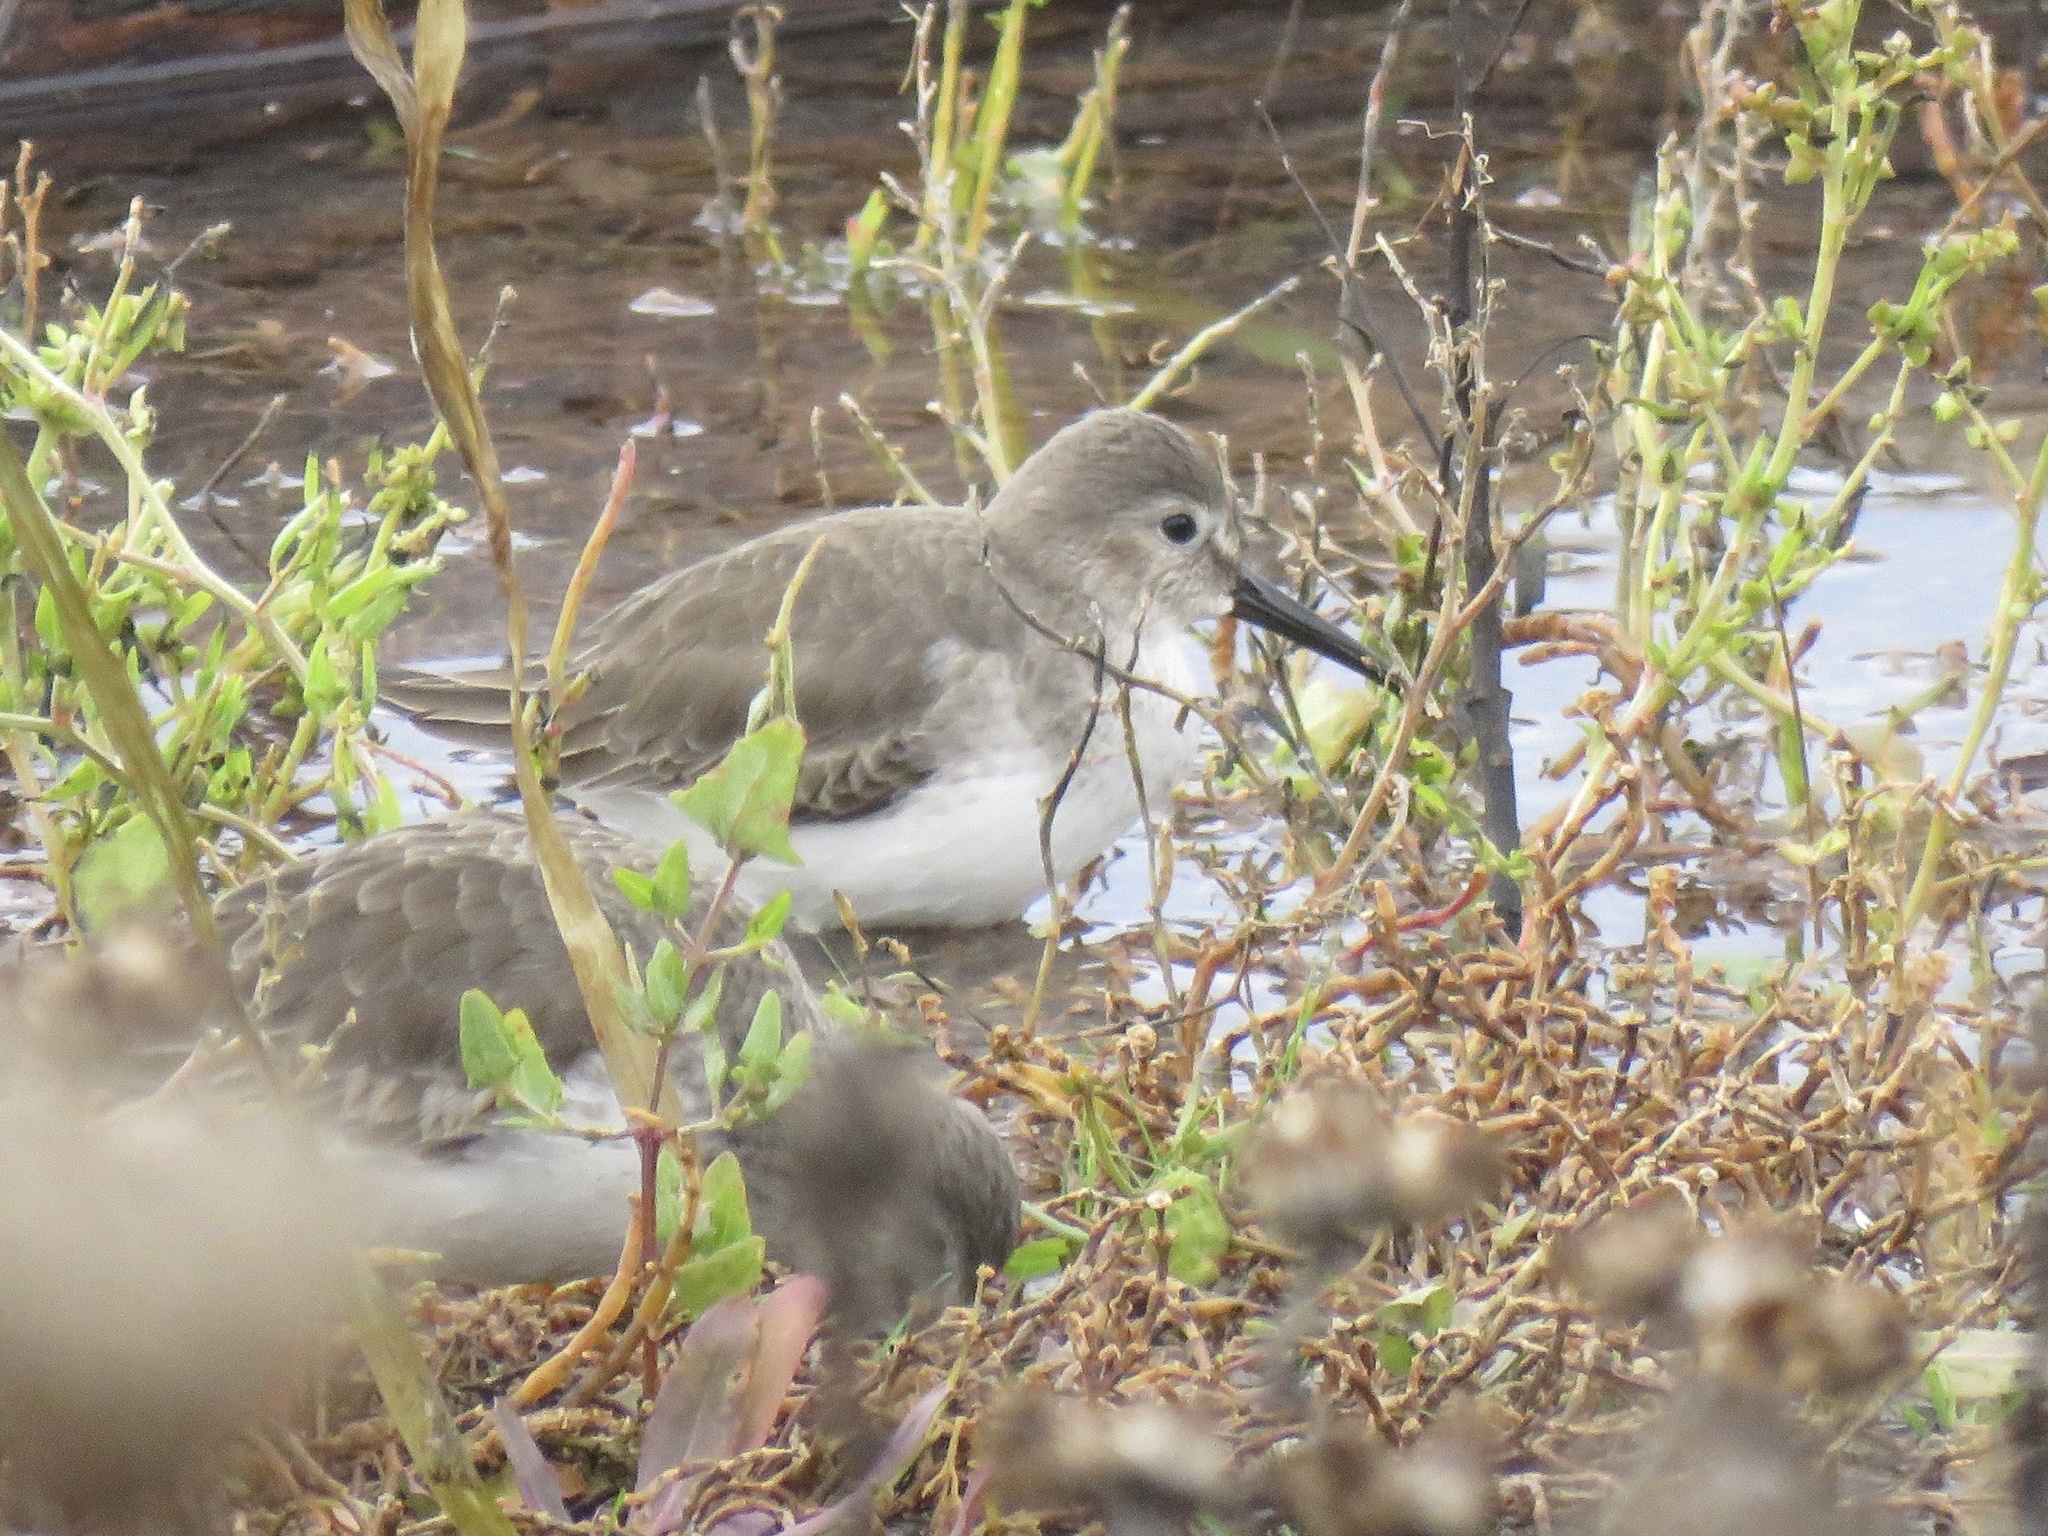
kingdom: Animalia
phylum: Chordata
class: Aves
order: Charadriiformes
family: Scolopacidae
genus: Calidris
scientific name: Calidris alpina
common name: Dunlin
